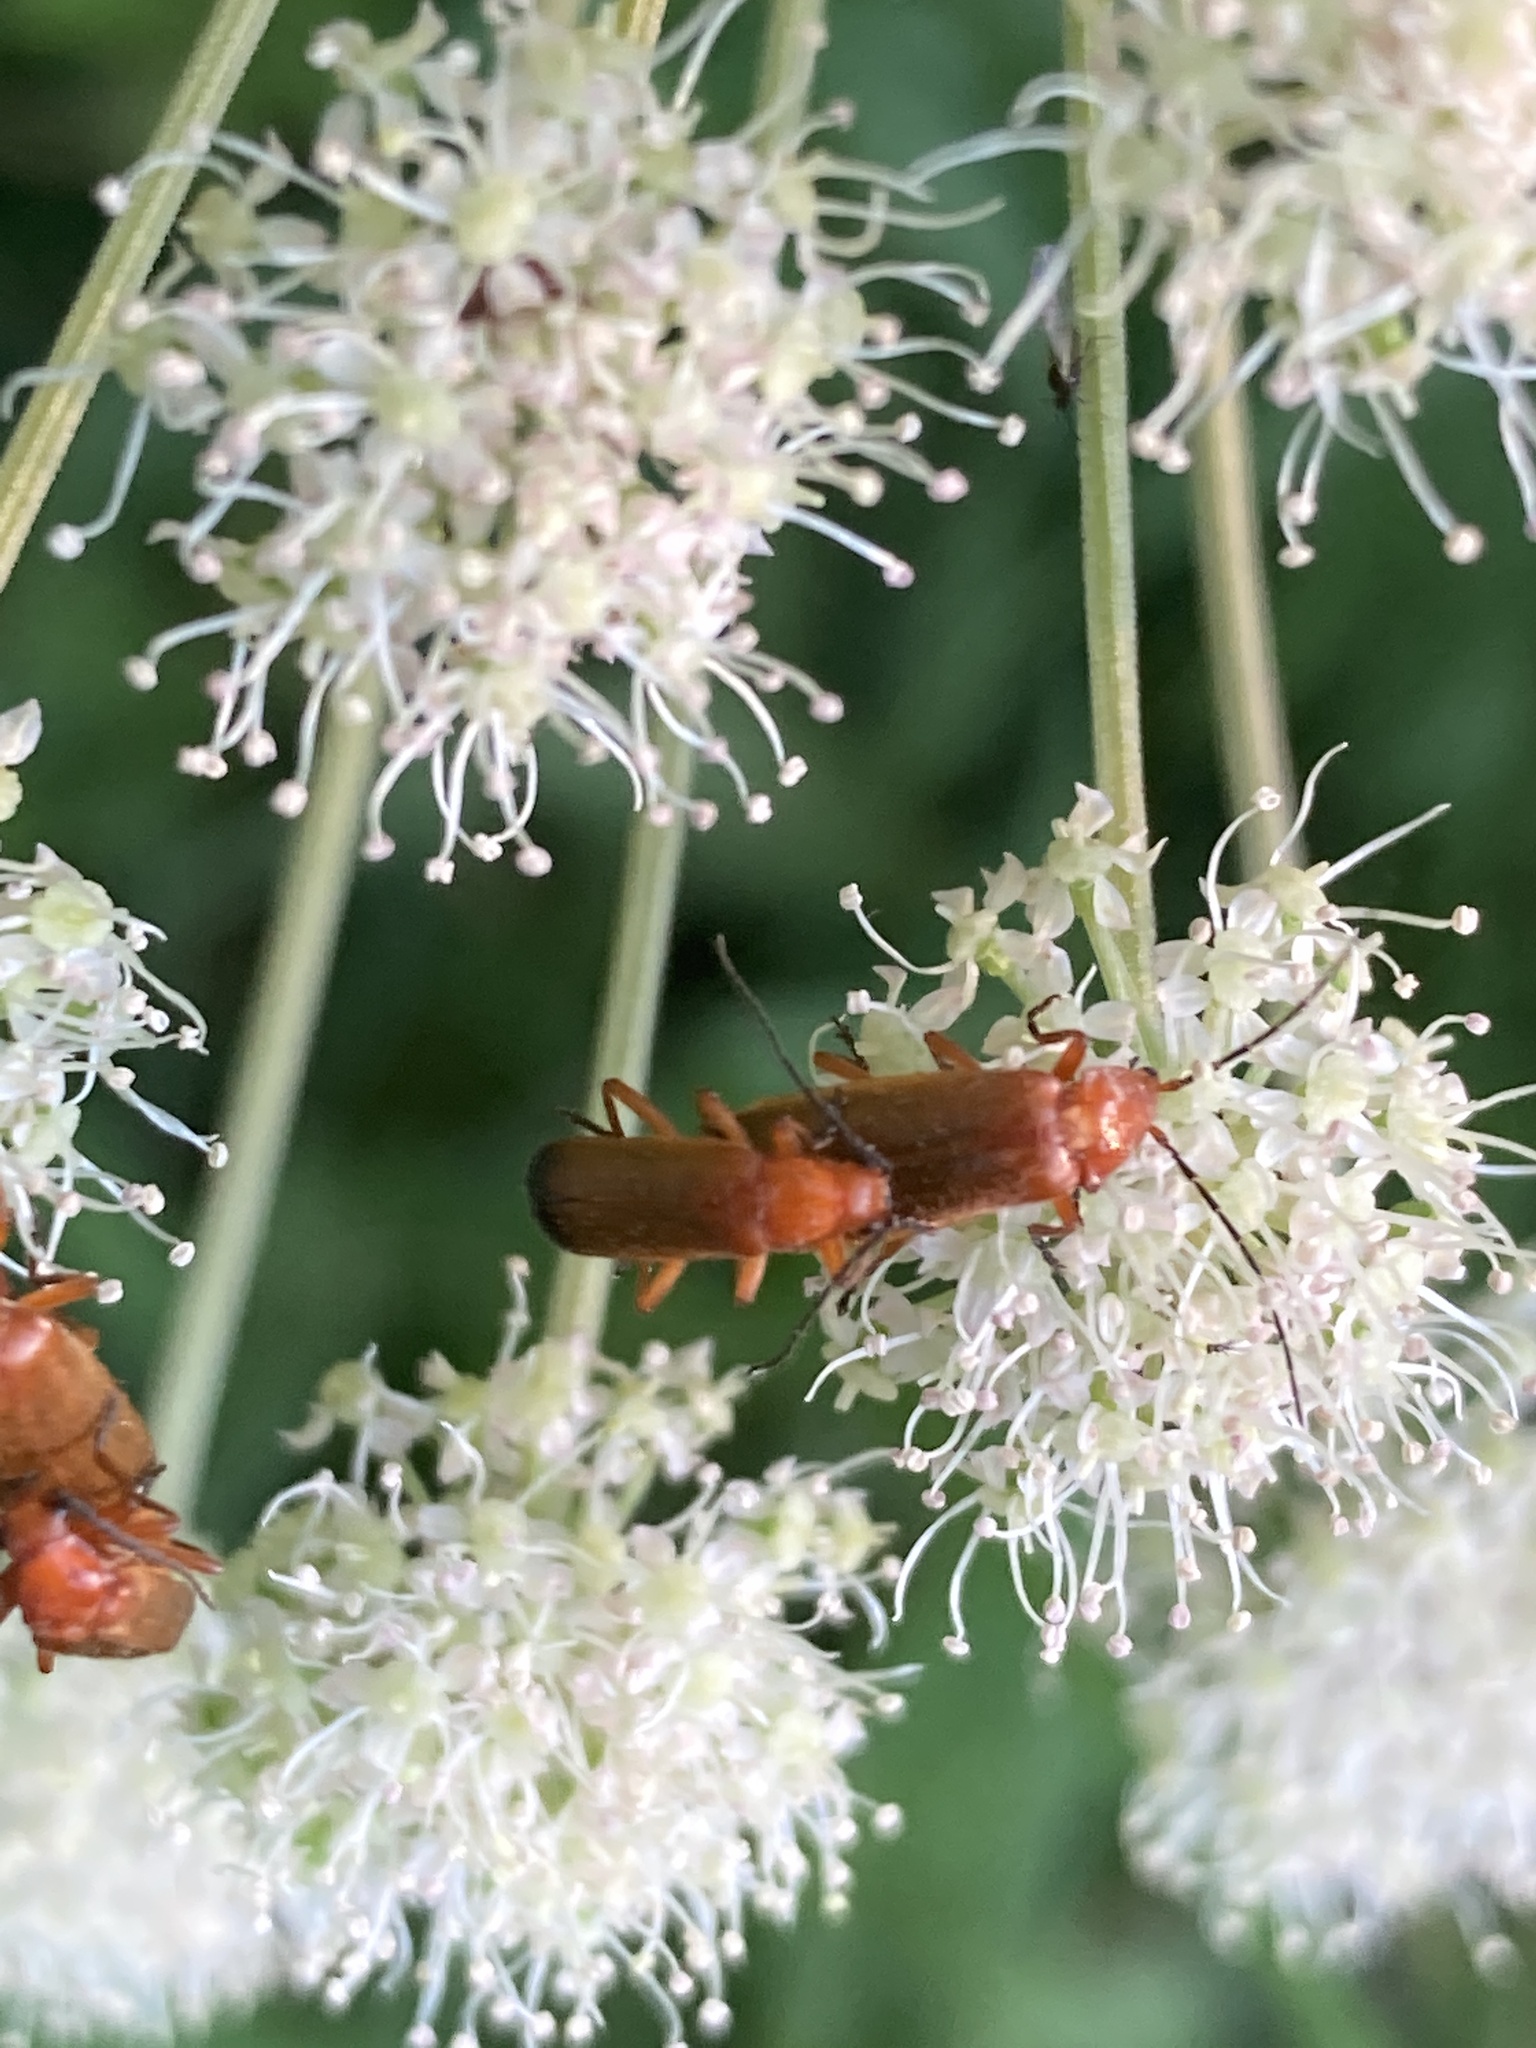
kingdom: Animalia
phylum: Arthropoda
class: Insecta
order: Coleoptera
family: Cantharidae
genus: Rhagonycha
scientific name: Rhagonycha fulva
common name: Common red soldier beetle
